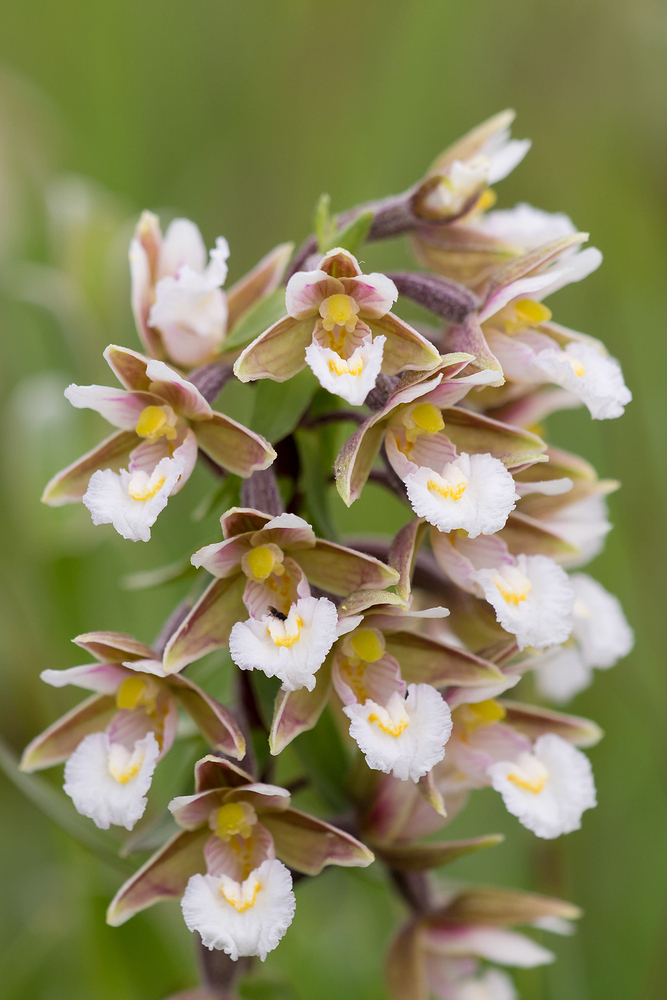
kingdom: Plantae
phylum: Tracheophyta
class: Liliopsida
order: Asparagales
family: Orchidaceae
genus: Epipactis
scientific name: Epipactis palustris
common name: Marsh helleborine
